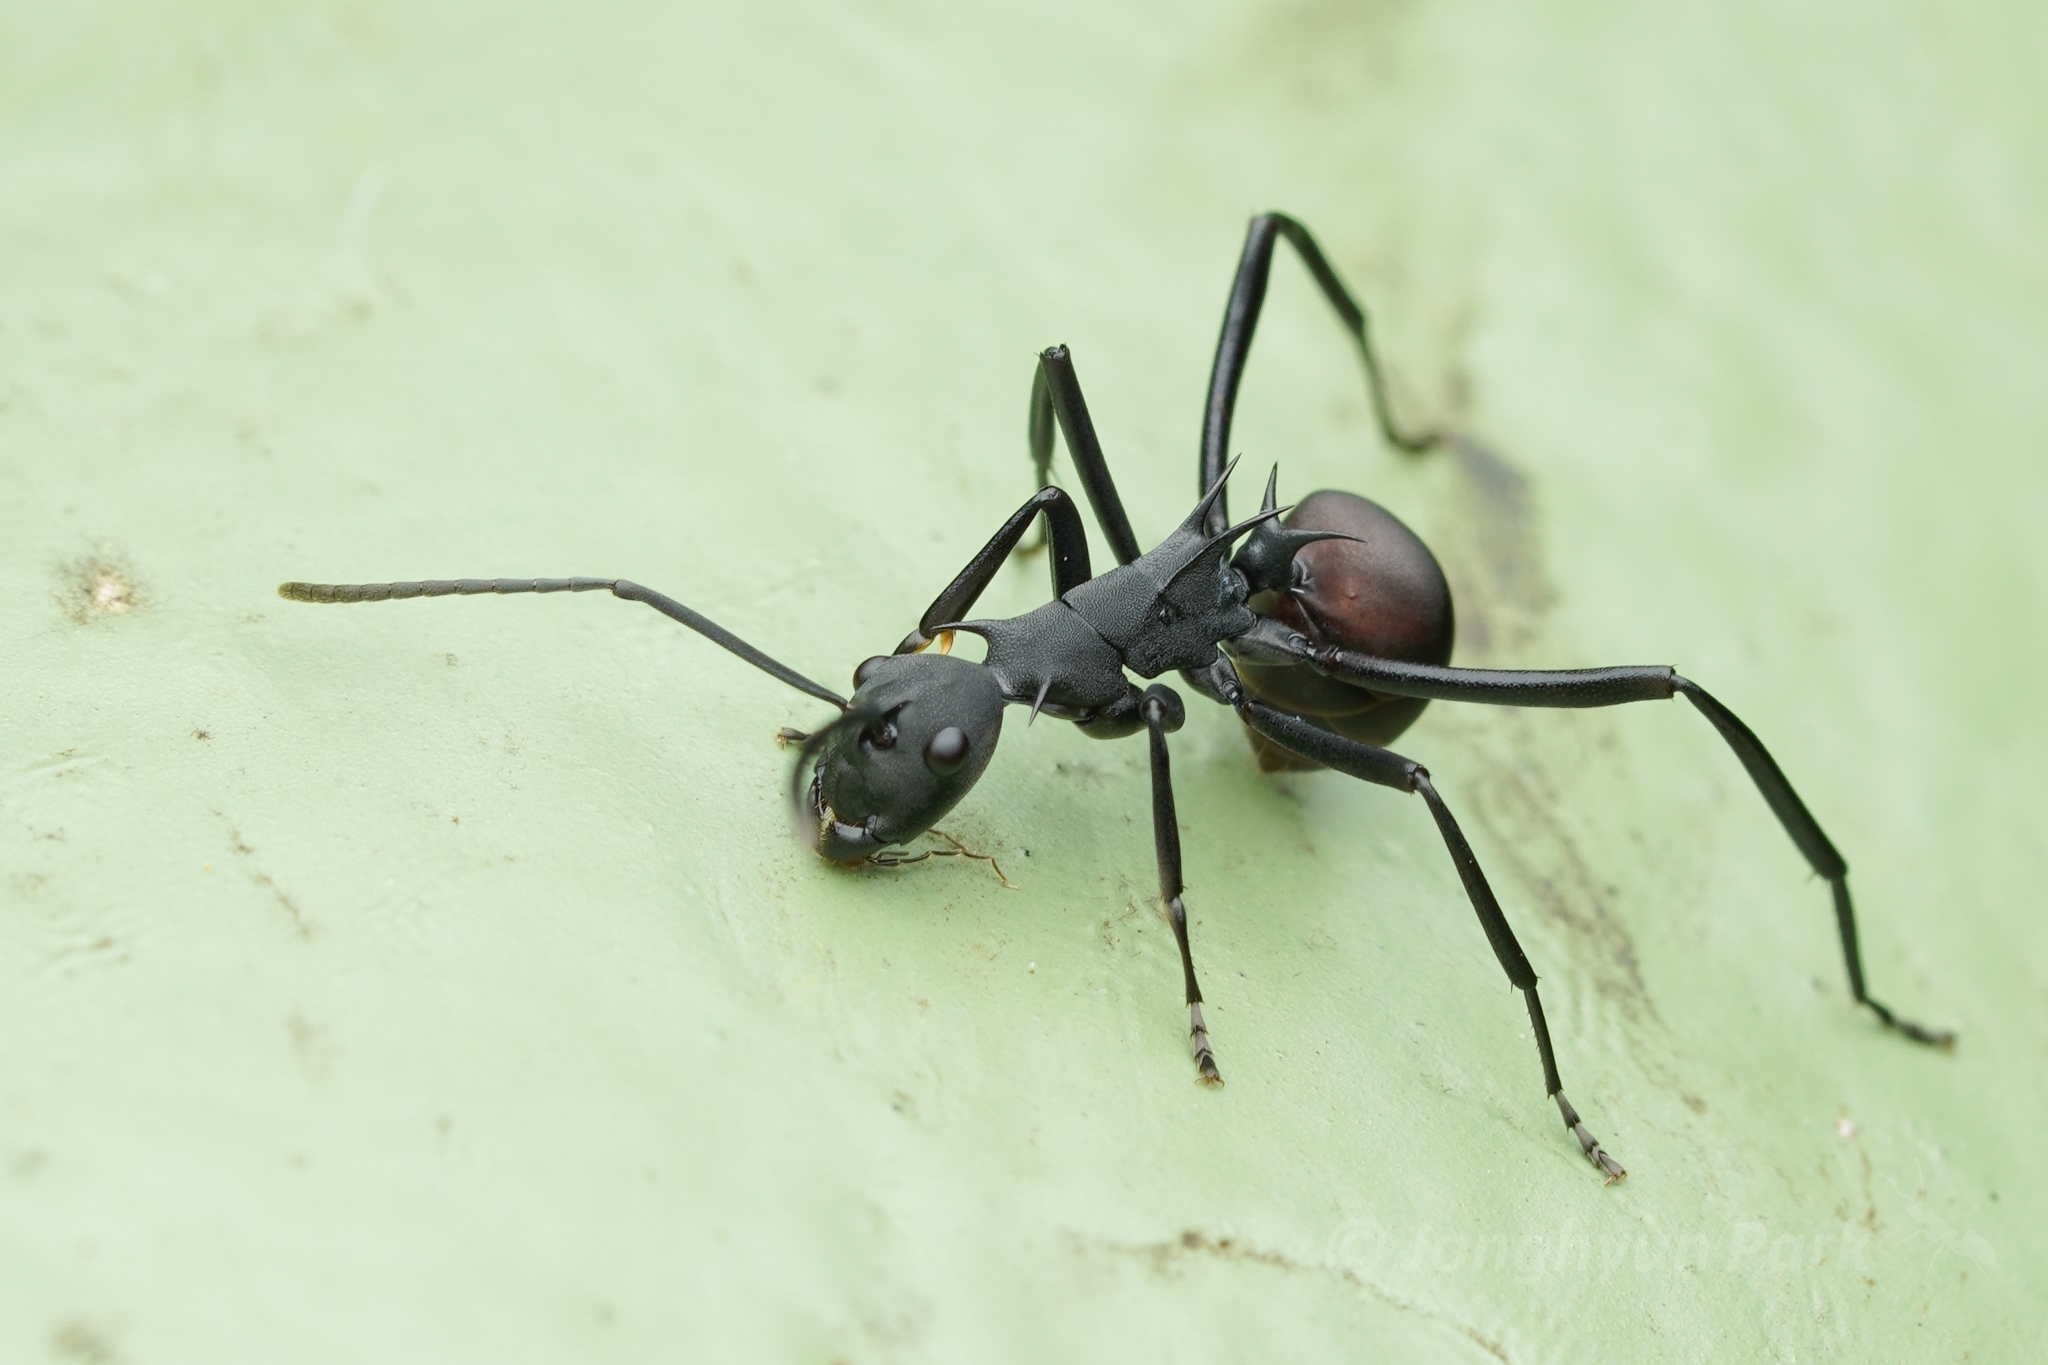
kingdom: Animalia
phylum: Arthropoda
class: Insecta
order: Hymenoptera
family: Formicidae
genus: Polyrhachis
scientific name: Polyrhachis abdominalis
